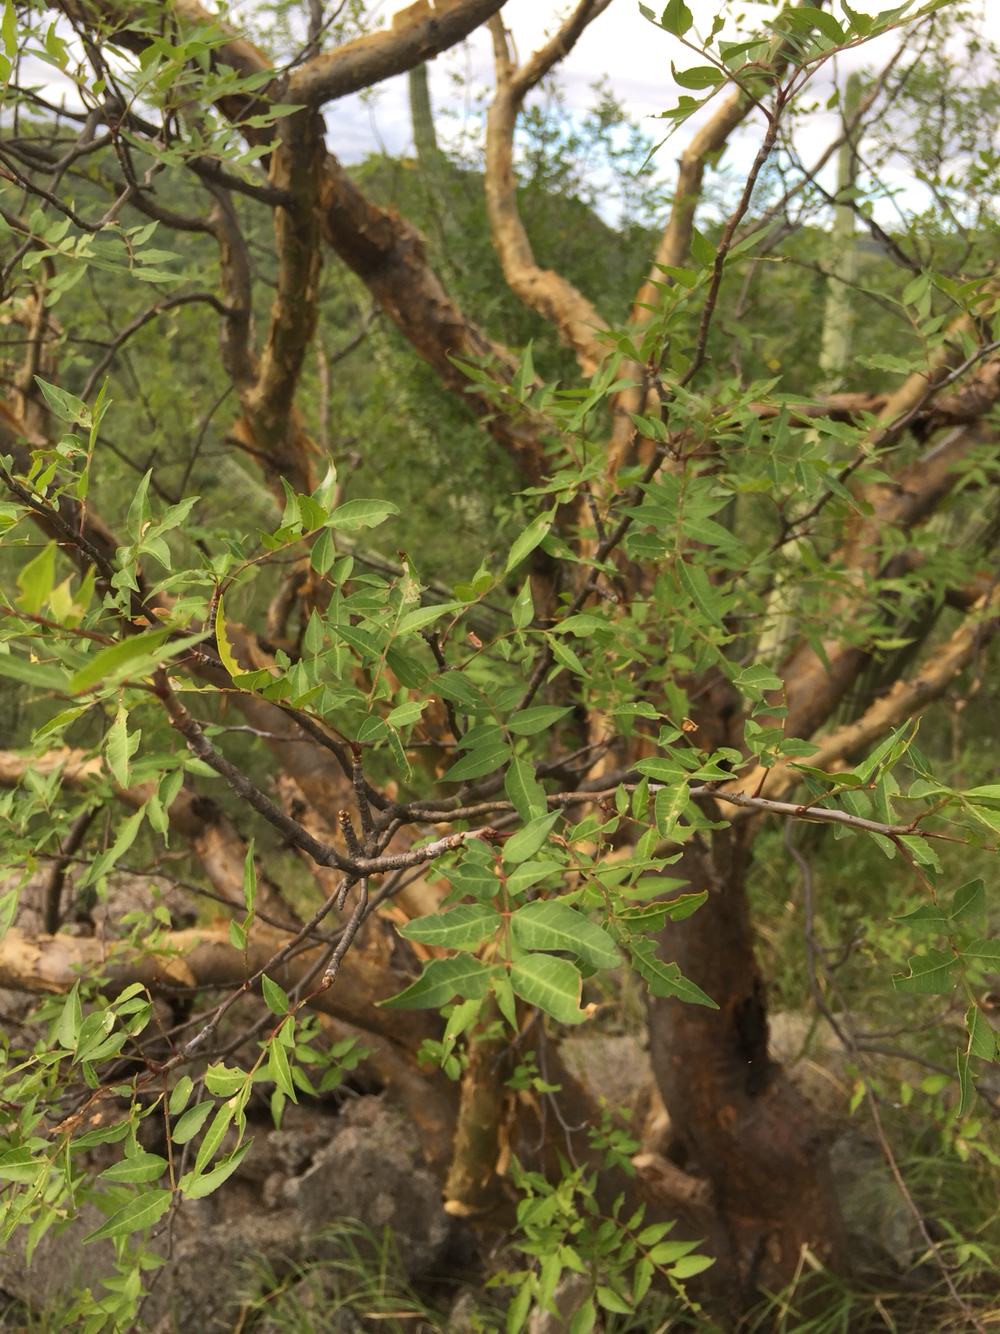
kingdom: Plantae
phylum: Tracheophyta
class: Magnoliopsida
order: Sapindales
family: Burseraceae
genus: Bursera
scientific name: Bursera fagaroides
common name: Elephant tree
